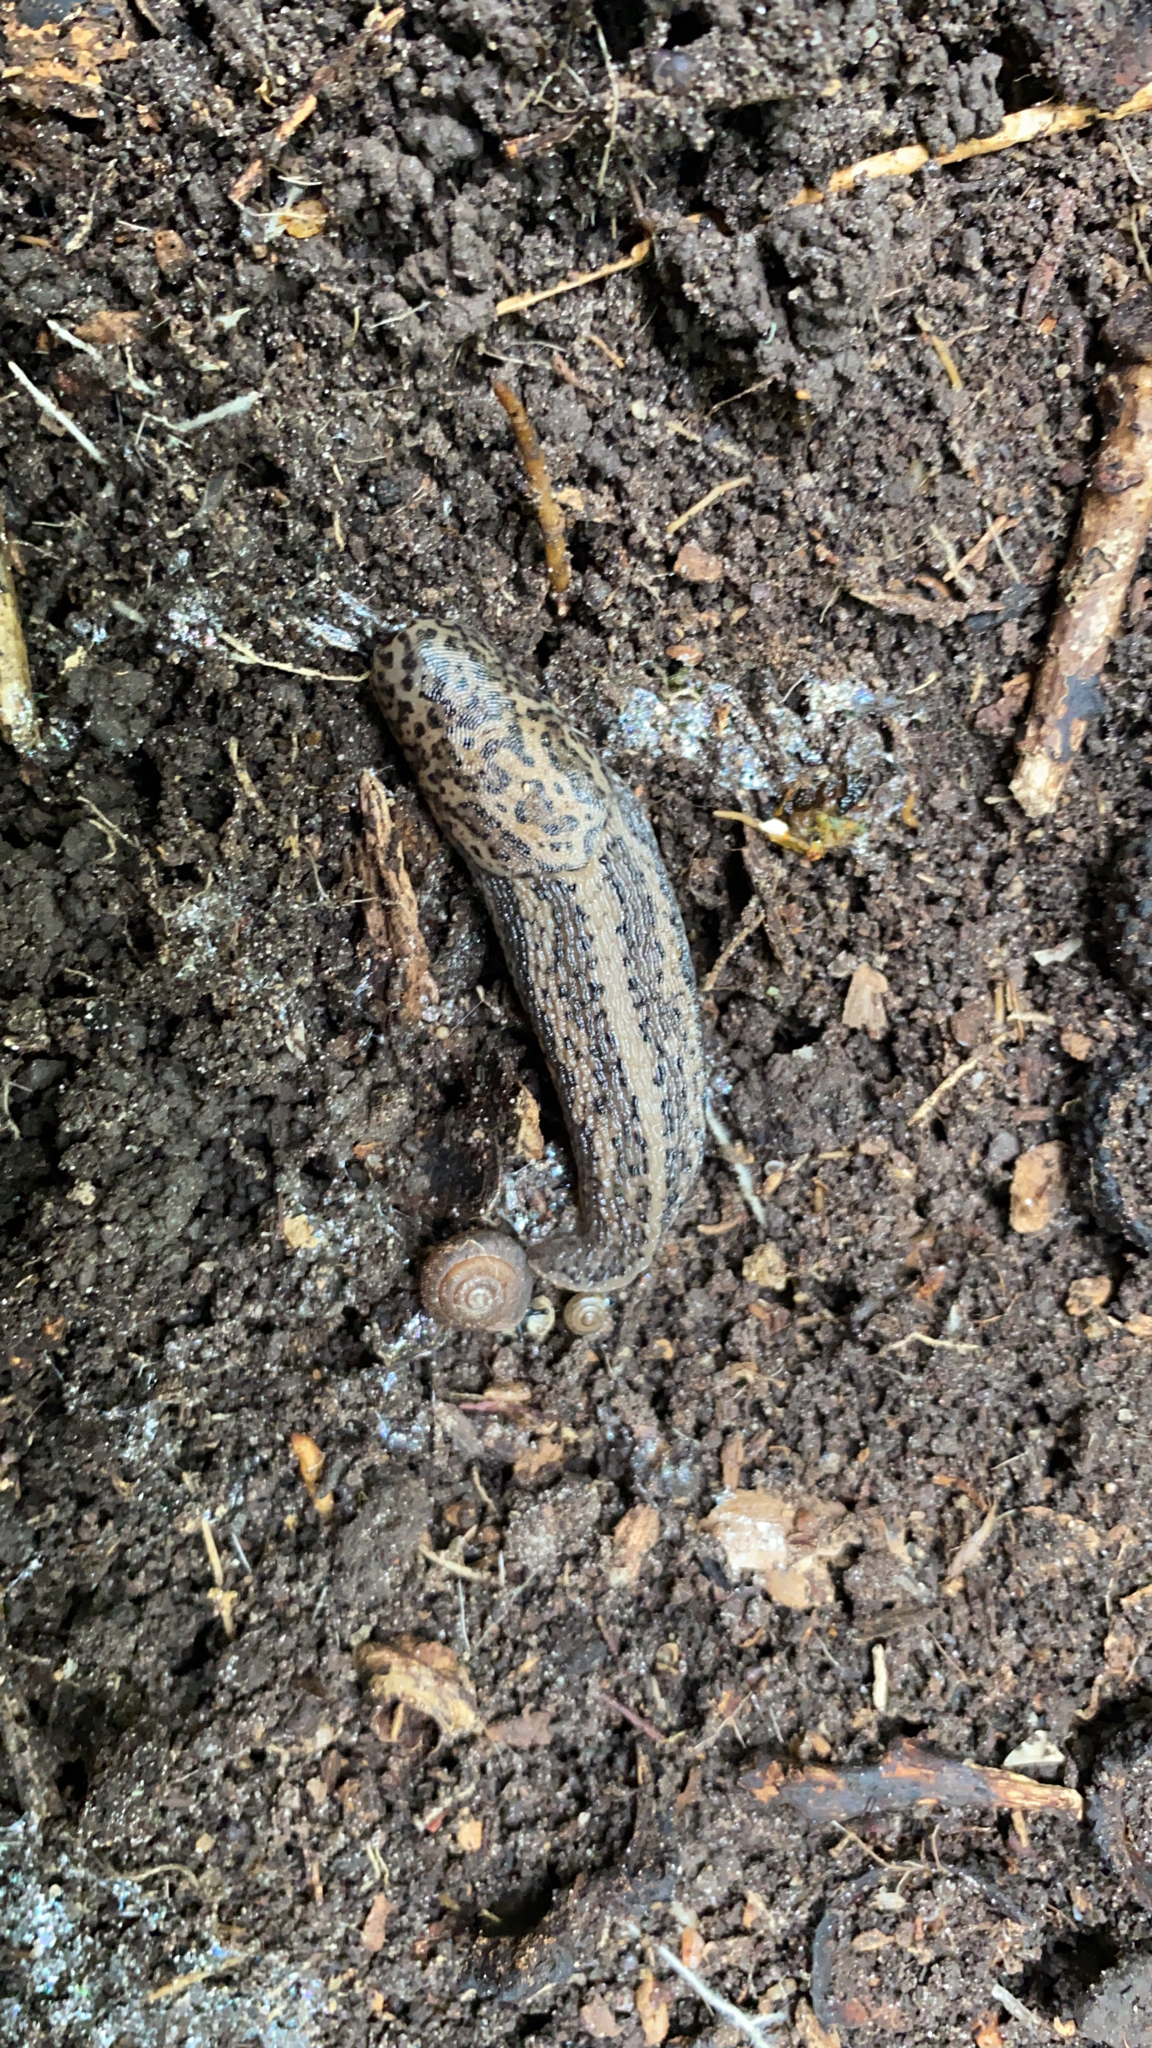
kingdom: Animalia
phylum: Mollusca
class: Gastropoda
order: Stylommatophora
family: Limacidae
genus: Limax
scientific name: Limax maximus
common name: Great grey slug
